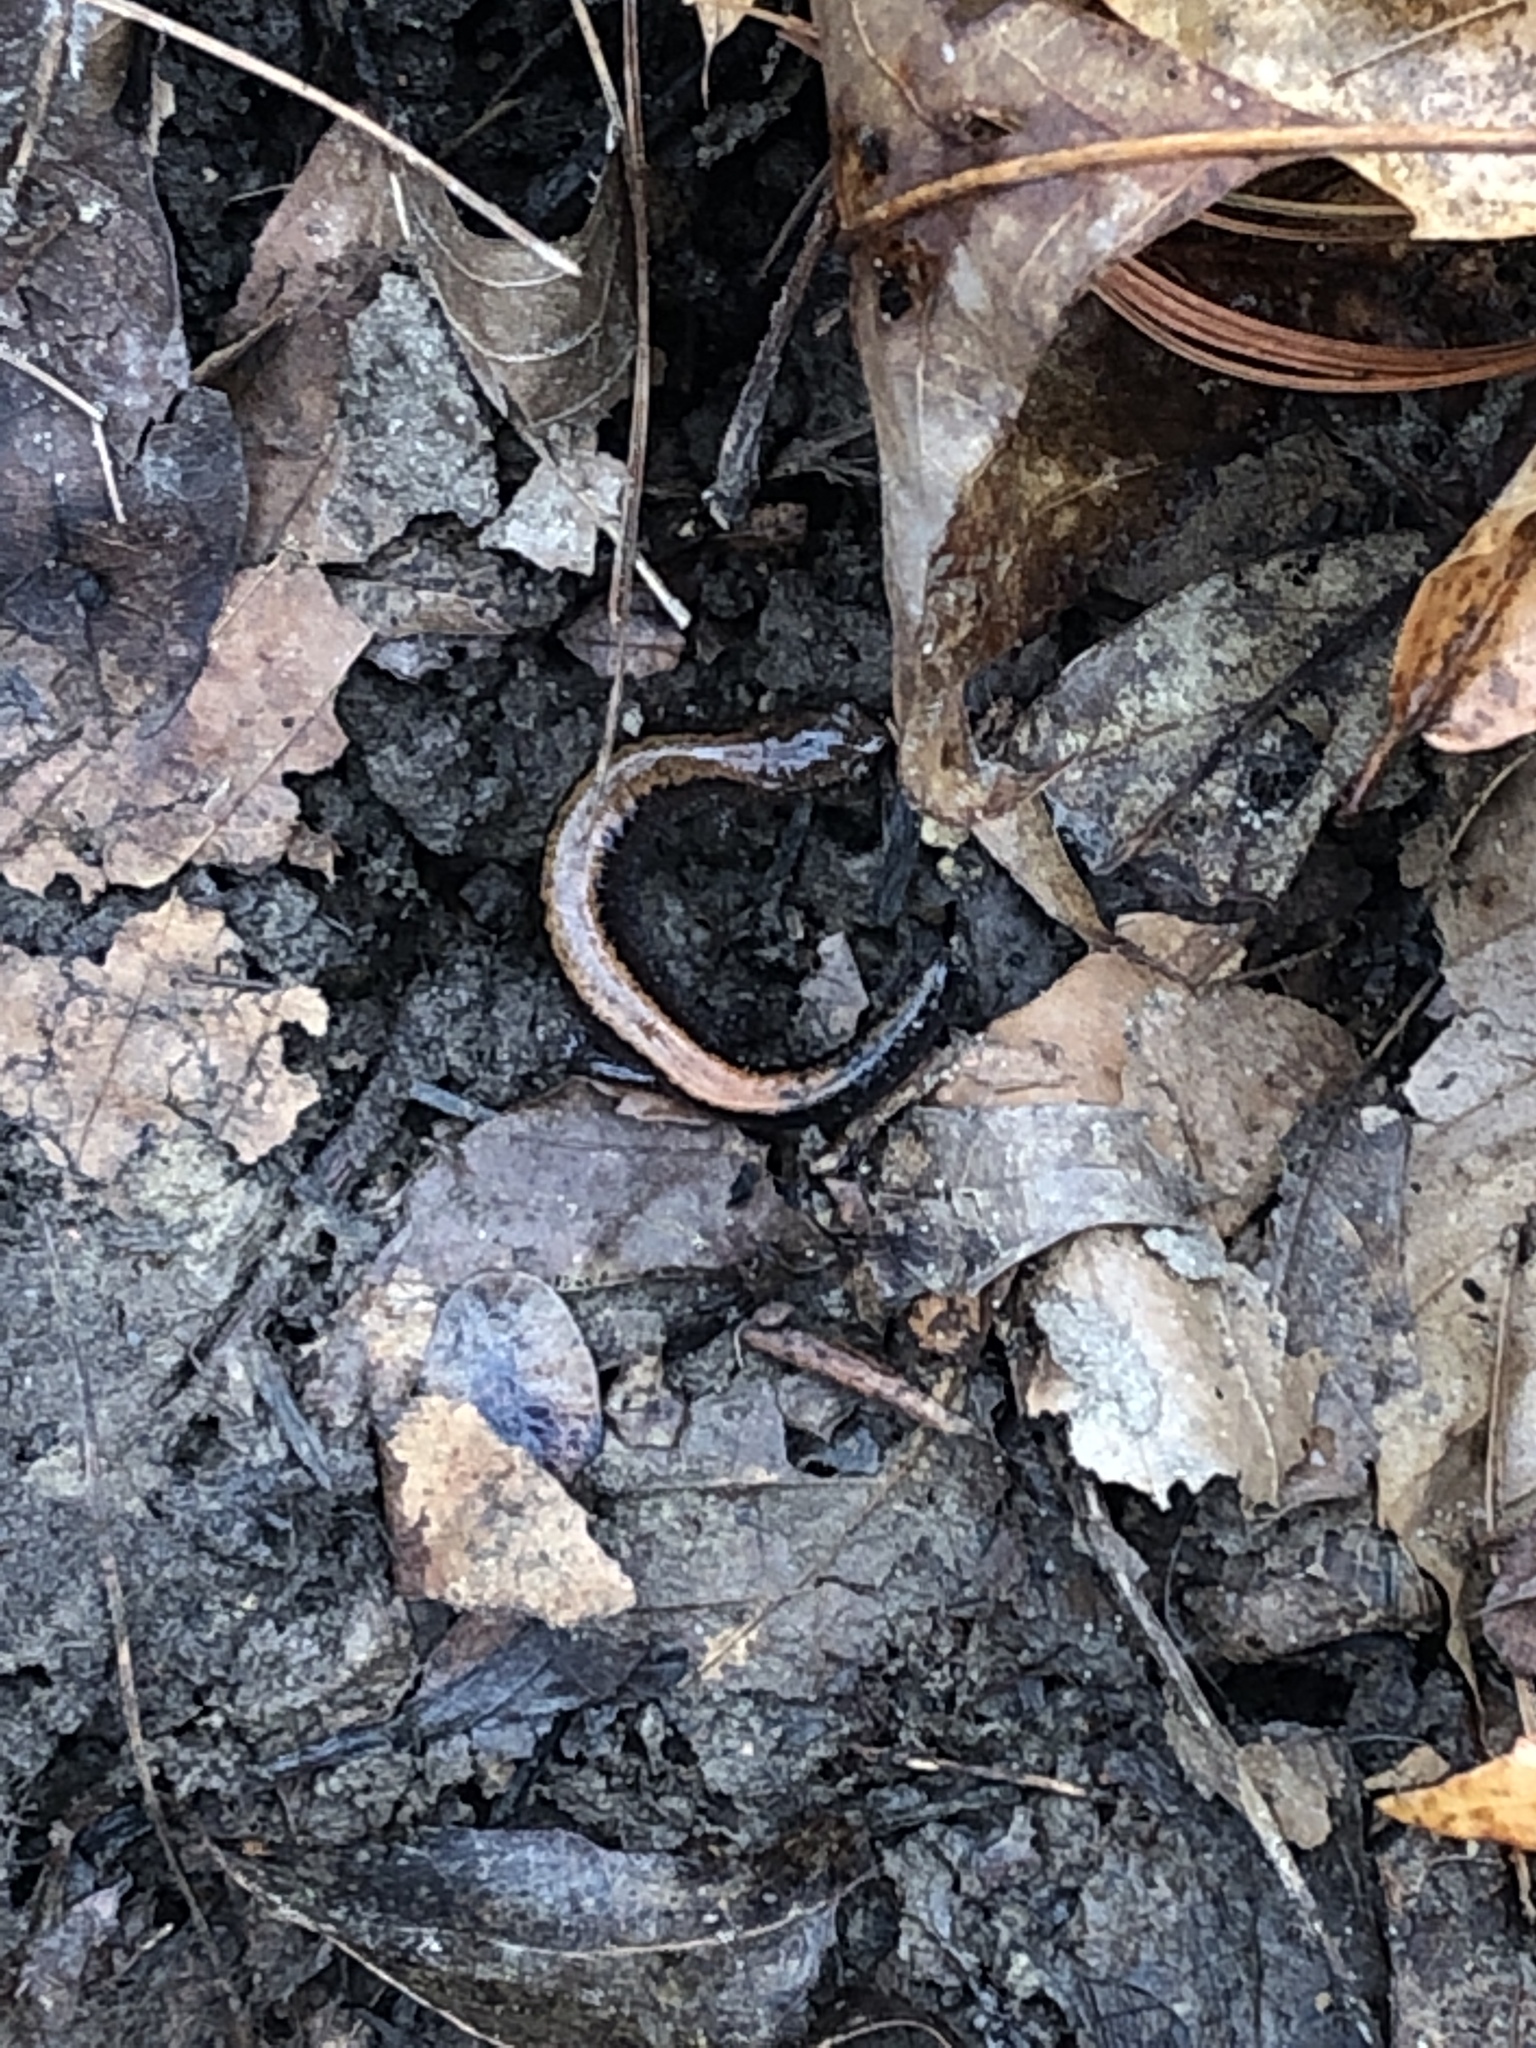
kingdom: Animalia
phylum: Chordata
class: Amphibia
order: Caudata
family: Plethodontidae
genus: Plethodon
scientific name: Plethodon cinereus
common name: Redback salamander
